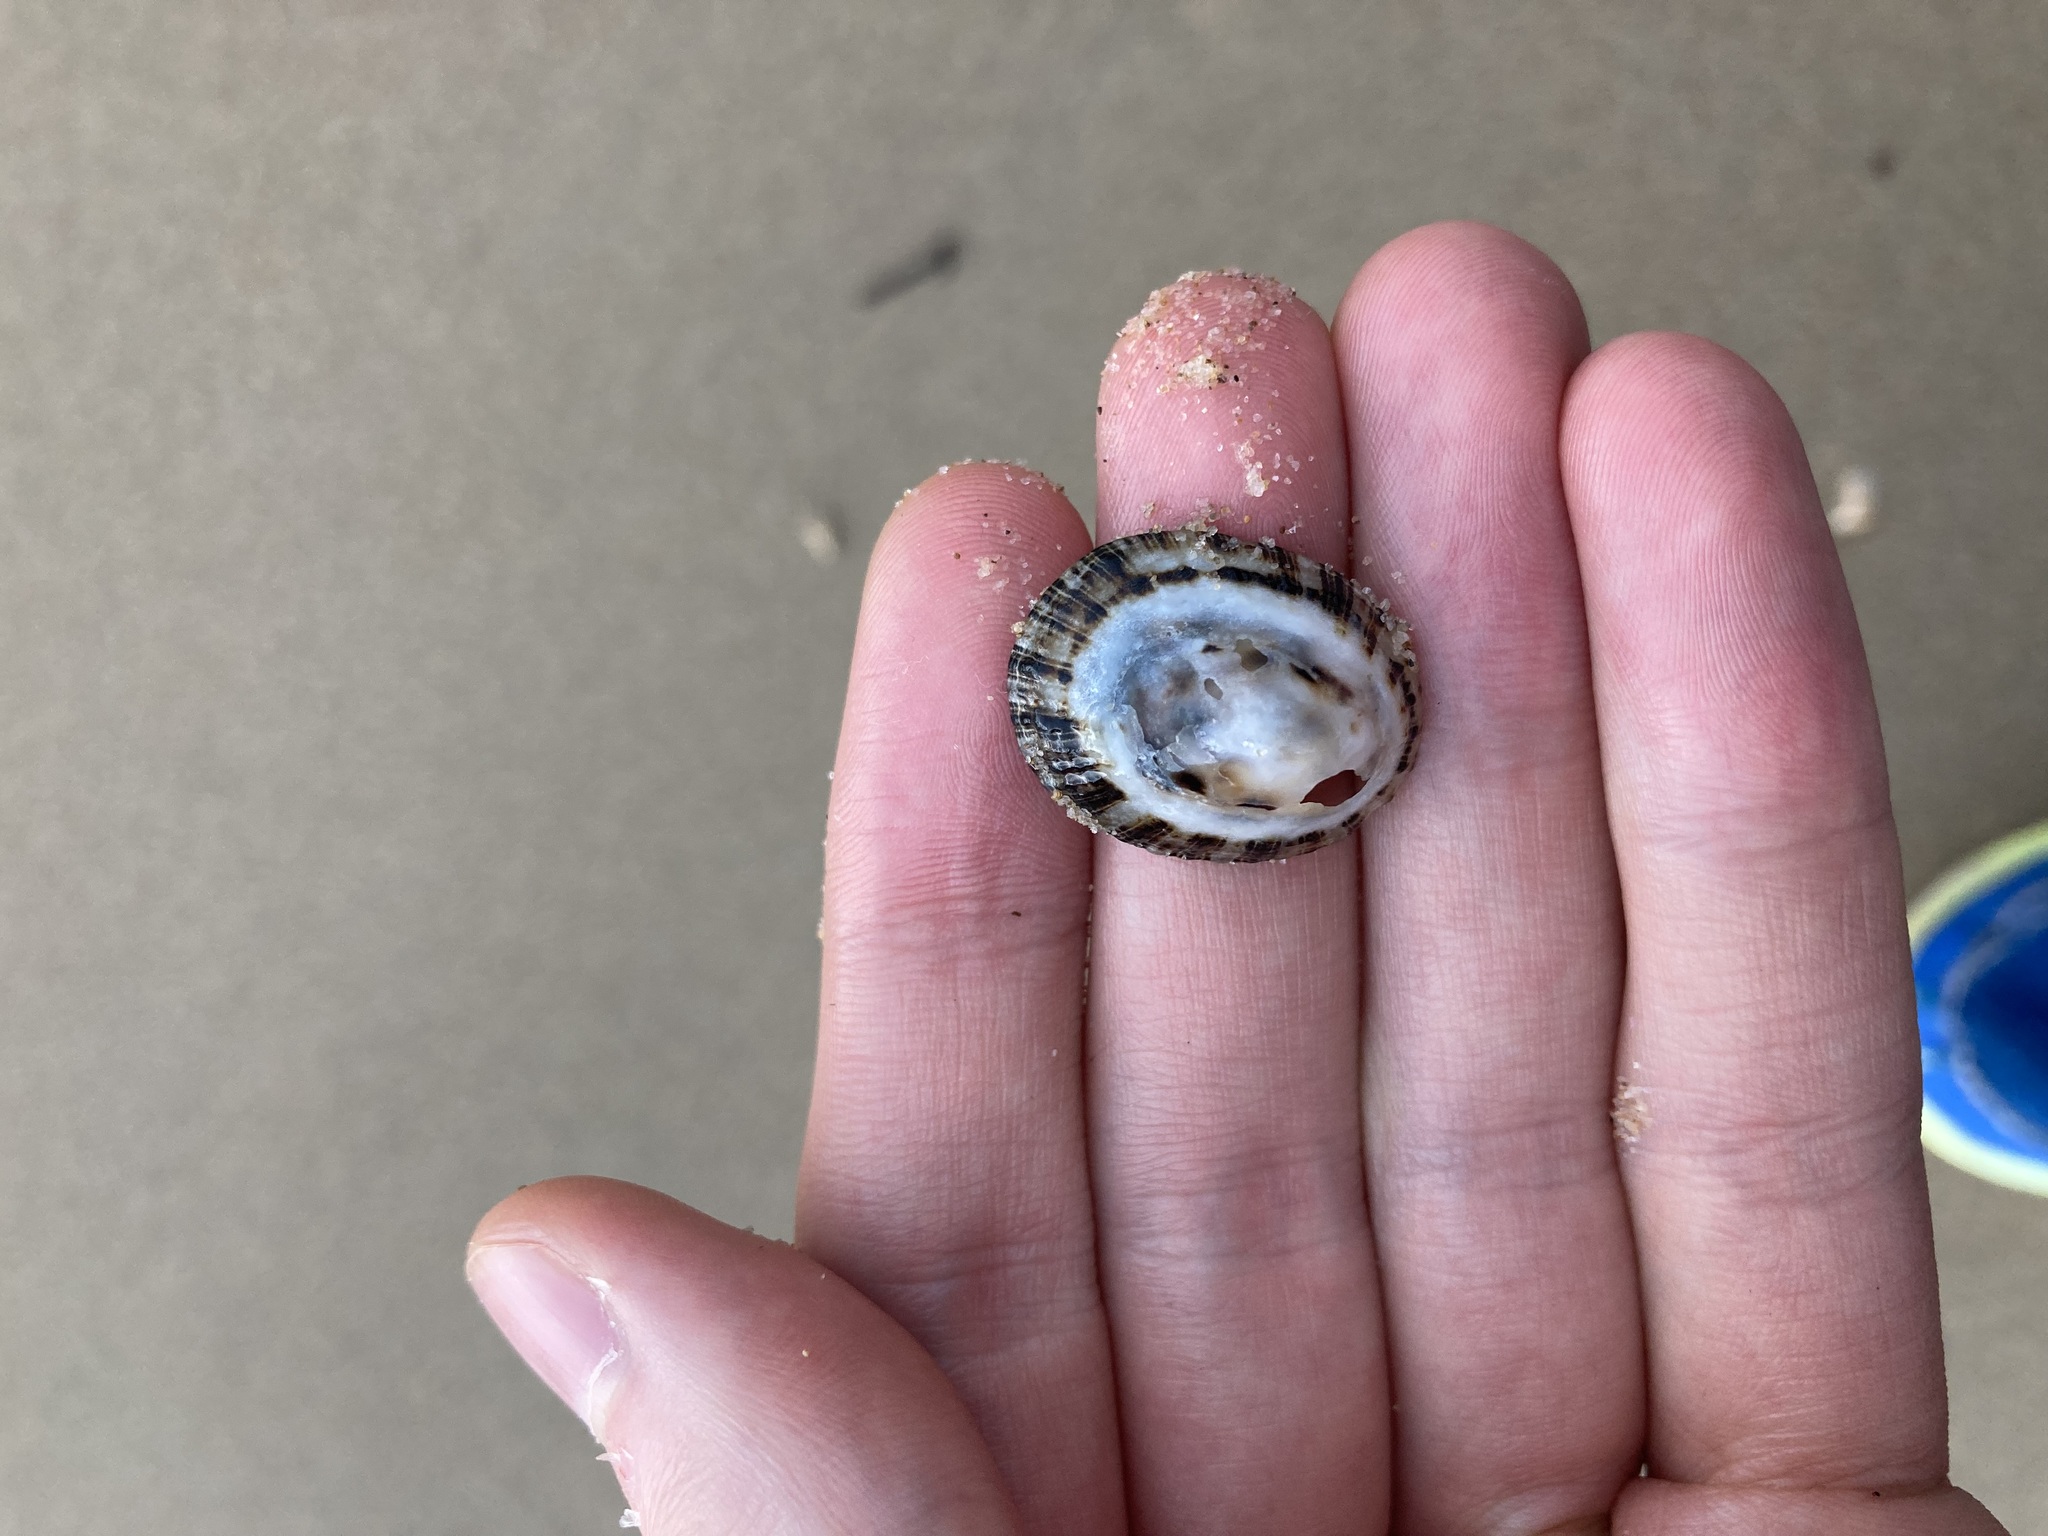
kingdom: Animalia
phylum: Mollusca
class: Gastropoda
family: Patellidae
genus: Scutellastra
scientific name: Scutellastra peronii
